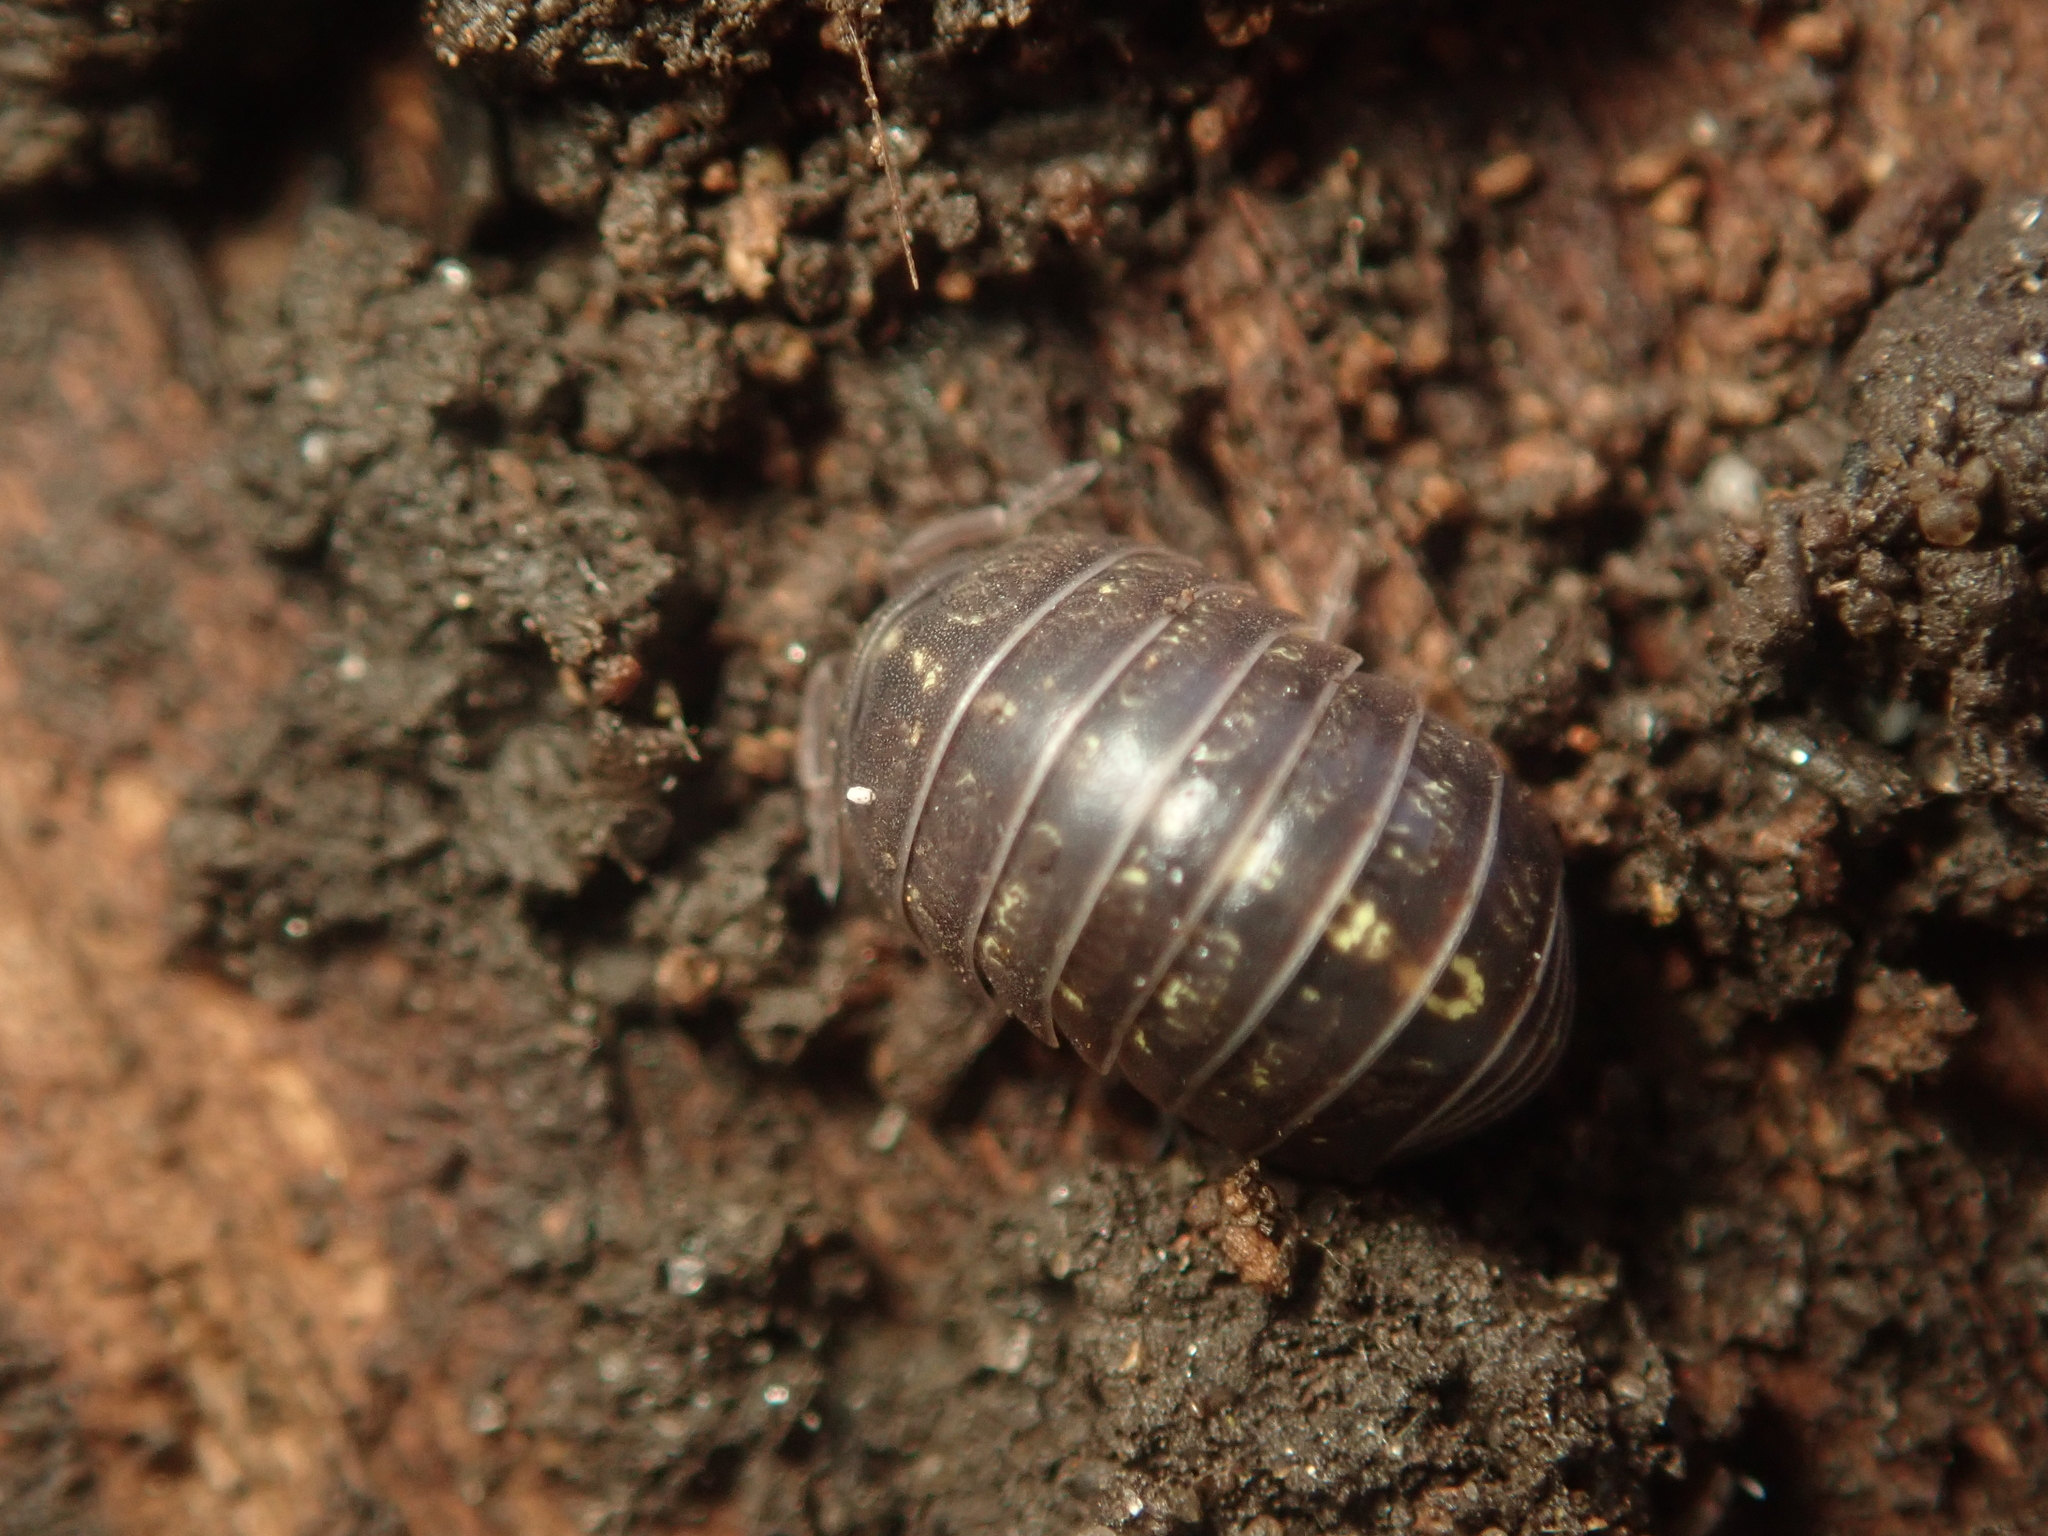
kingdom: Animalia
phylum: Arthropoda
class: Malacostraca
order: Isopoda
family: Armadillidiidae
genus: Armadillidium
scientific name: Armadillidium vulgare
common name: Common pill woodlouse
